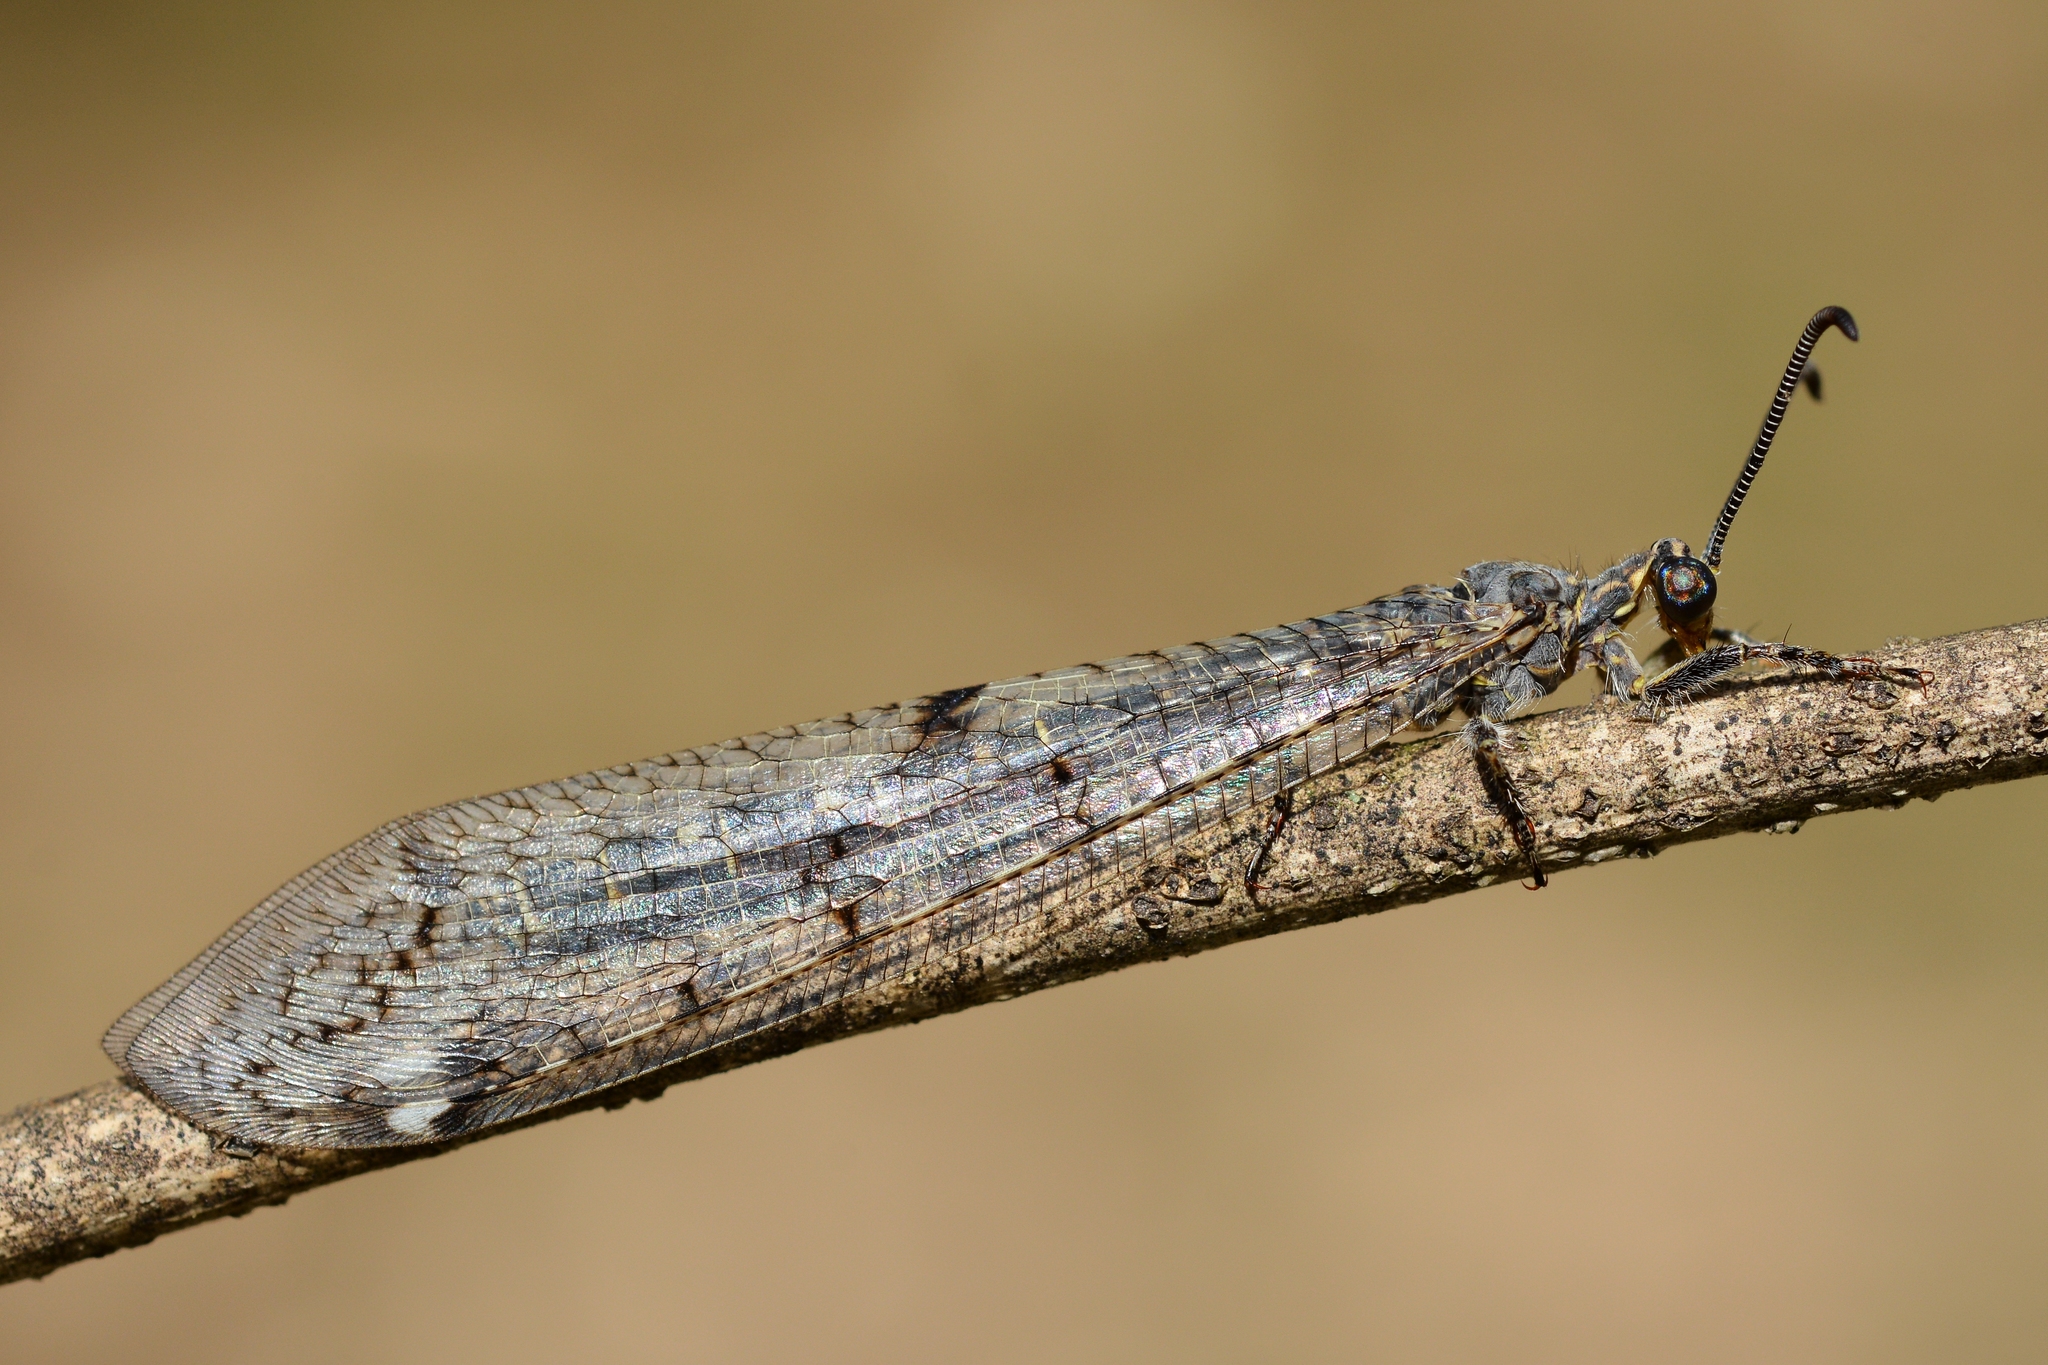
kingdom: Animalia
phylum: Arthropoda
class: Insecta
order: Neuroptera
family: Myrmeleontidae
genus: Distoleon
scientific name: Distoleon tetragrammicus
